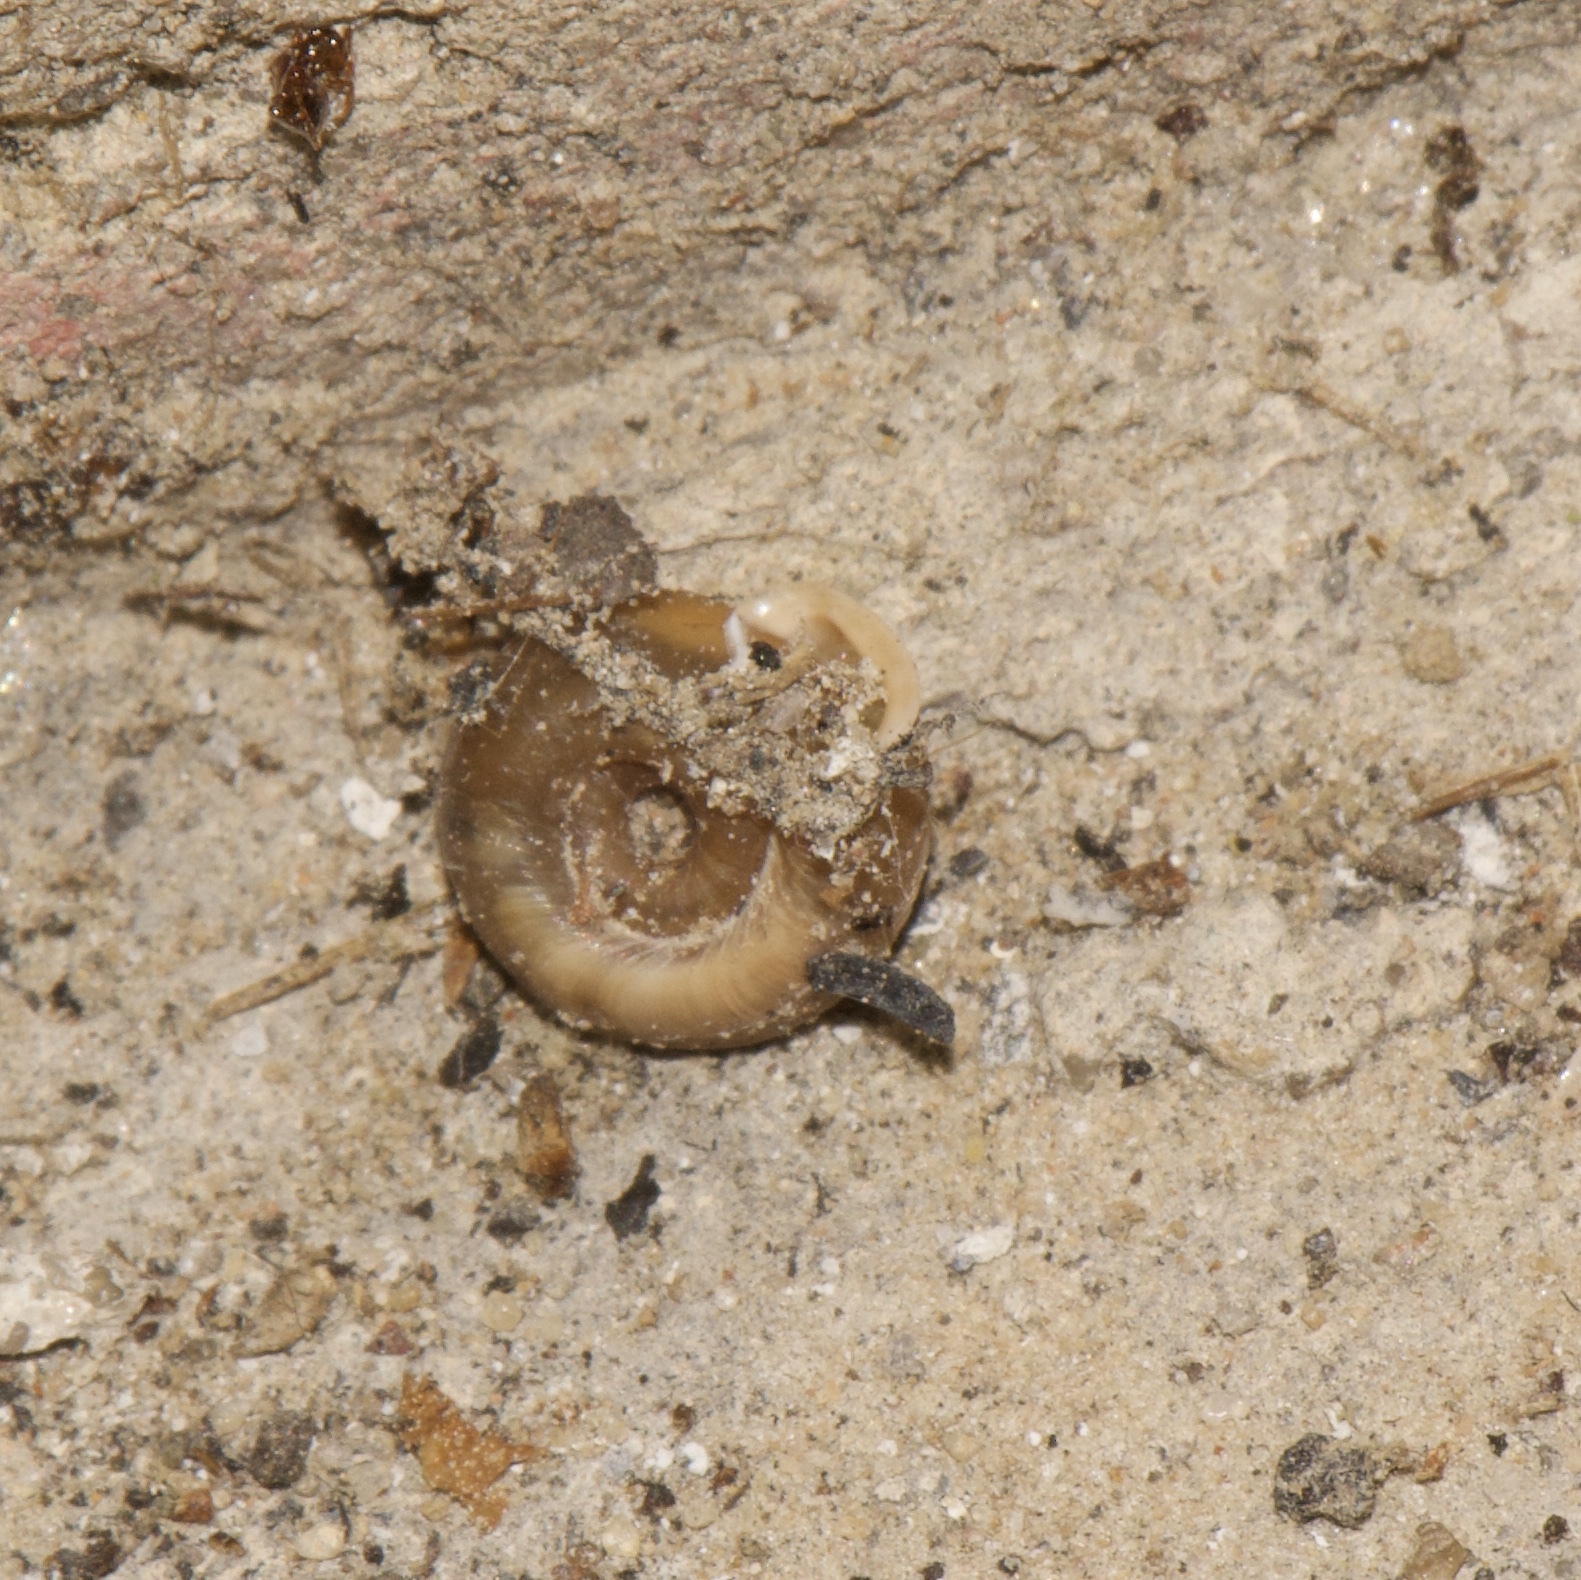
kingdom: Animalia
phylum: Mollusca
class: Gastropoda
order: Stylommatophora
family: Polygyridae
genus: Polygyra
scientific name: Polygyra cereolus
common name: Southern flatcone snail
